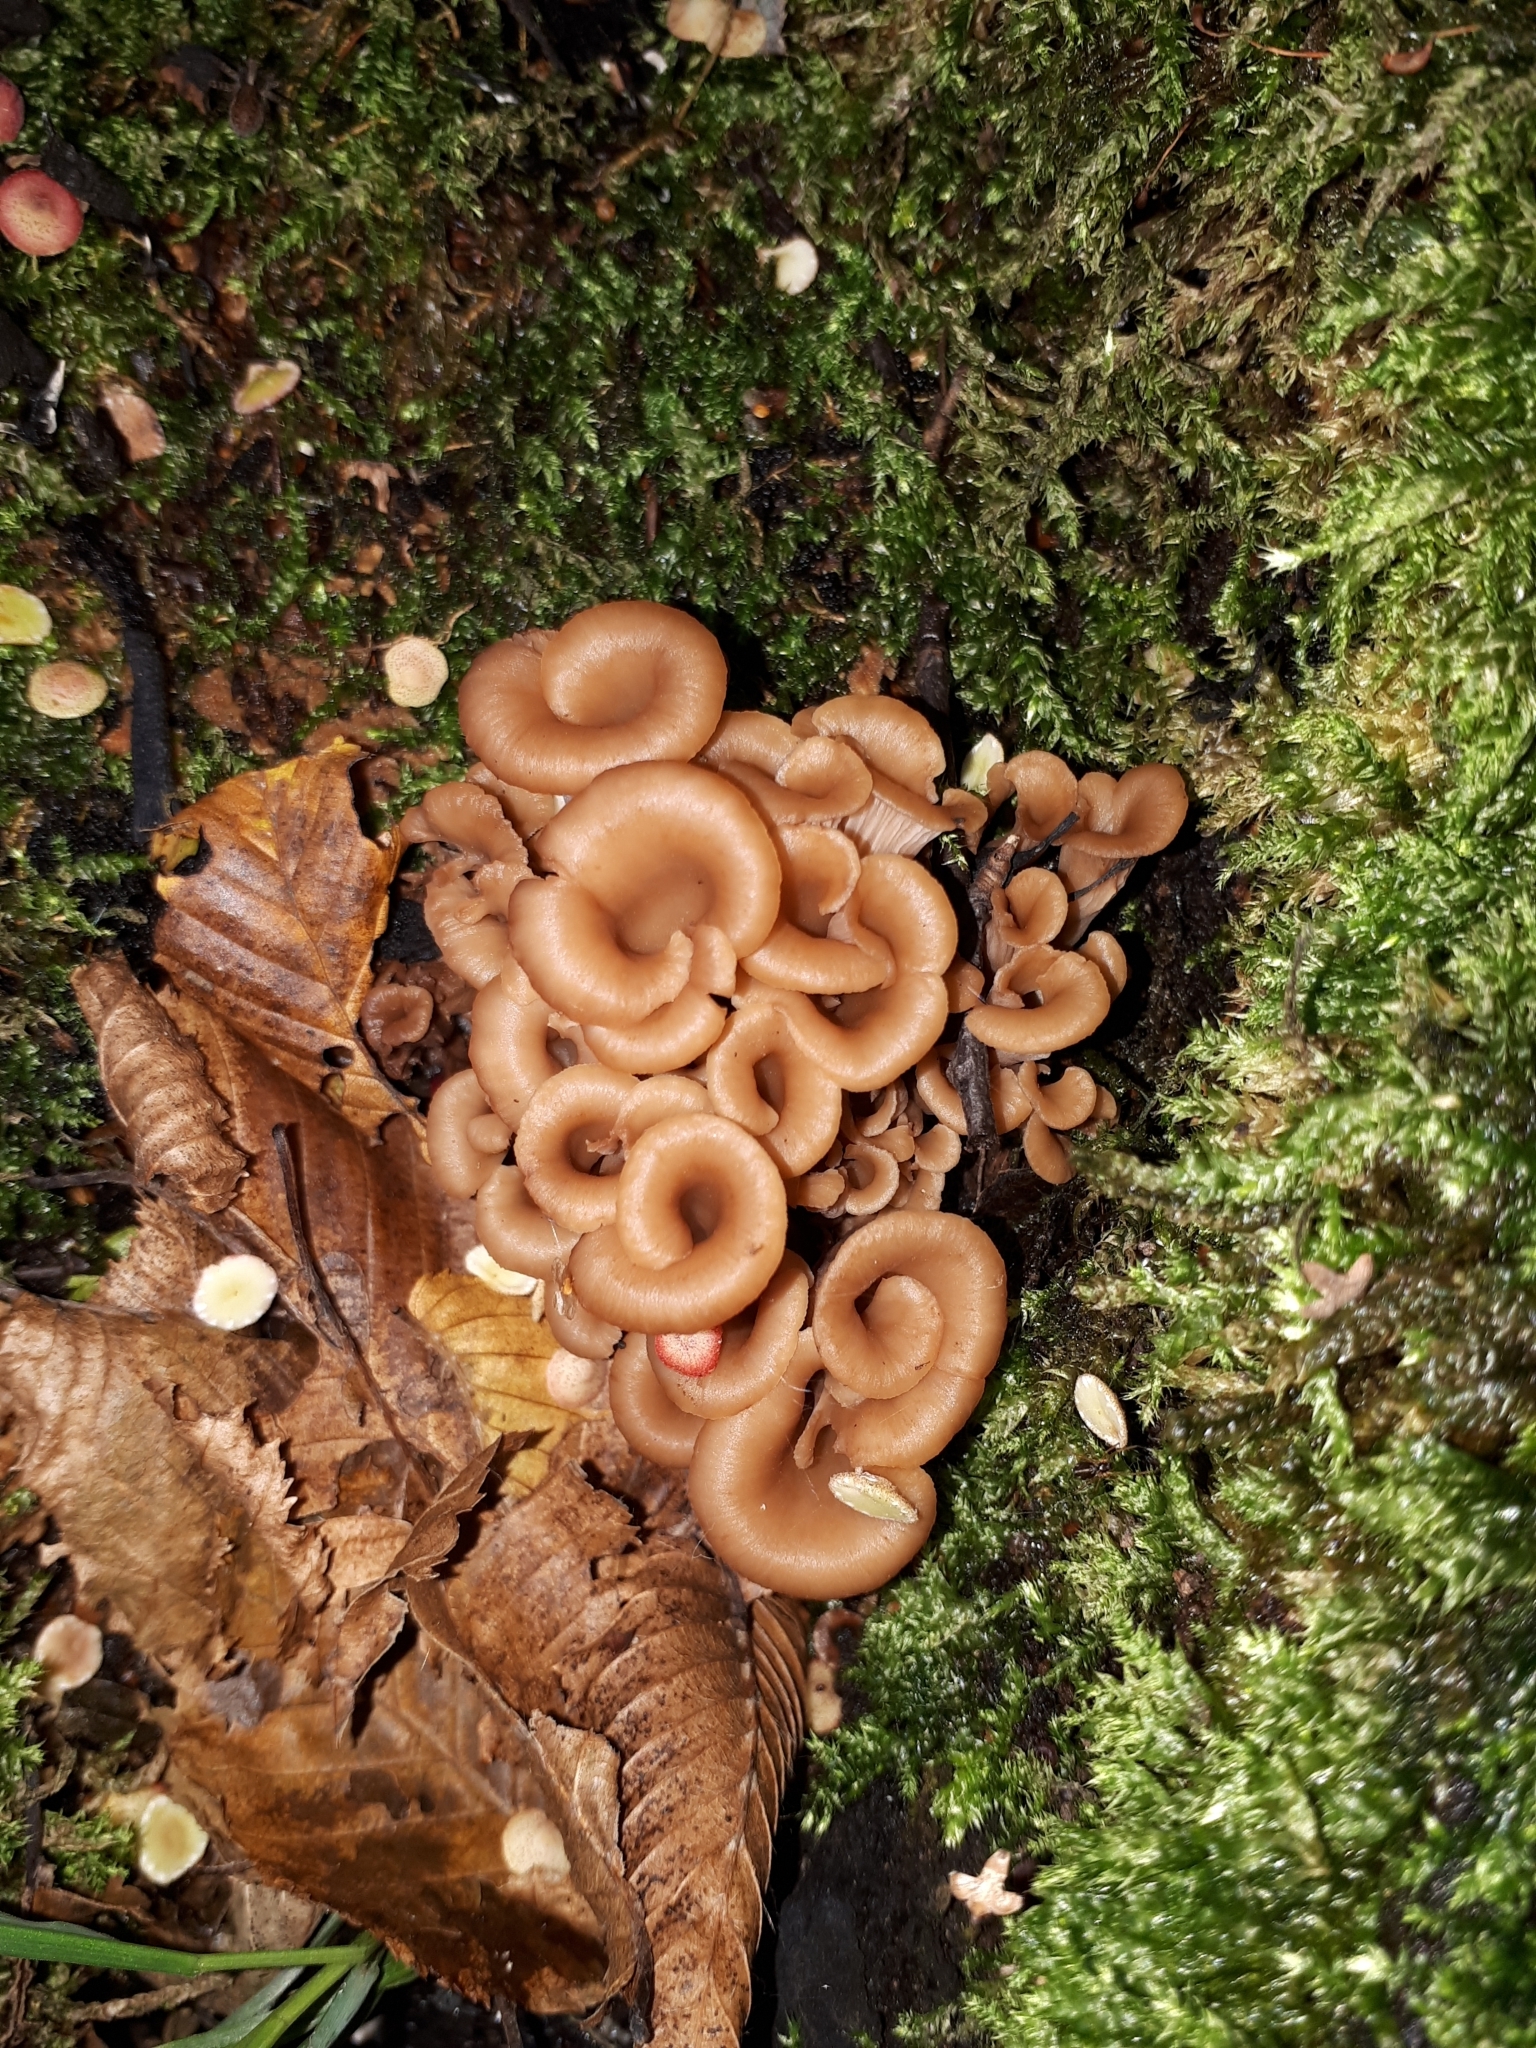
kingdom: Fungi
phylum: Basidiomycota
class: Agaricomycetes
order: Russulales
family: Auriscalpiaceae
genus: Lentinellus
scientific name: Lentinellus cochleatus
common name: Aniseed cockleshell
